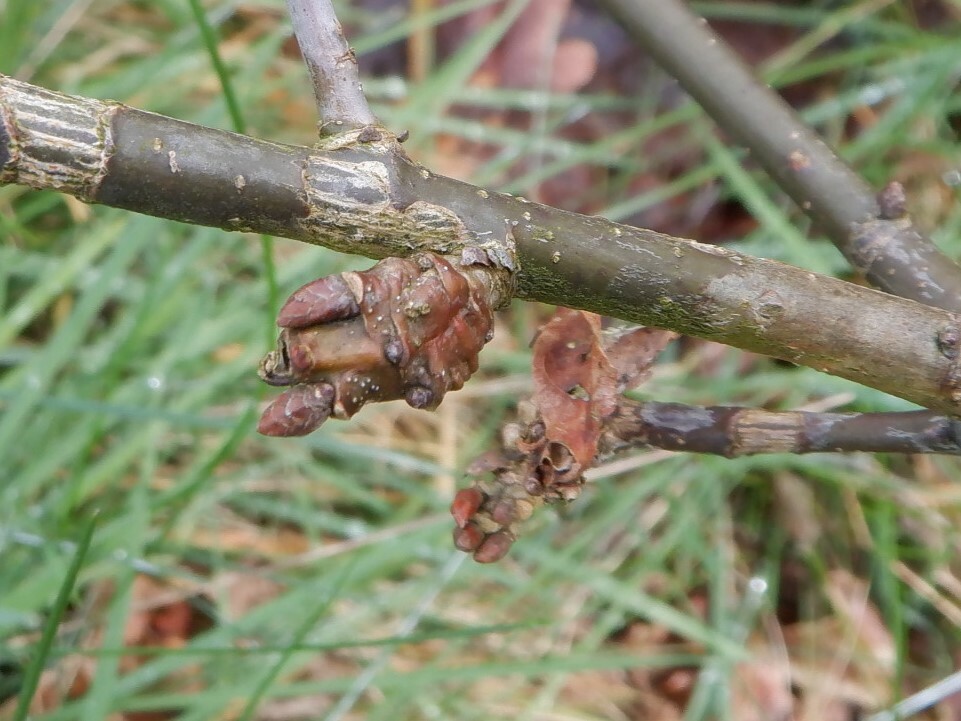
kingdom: Animalia
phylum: Arthropoda
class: Insecta
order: Hymenoptera
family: Cynipidae
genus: Andricus
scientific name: Andricus inflator
